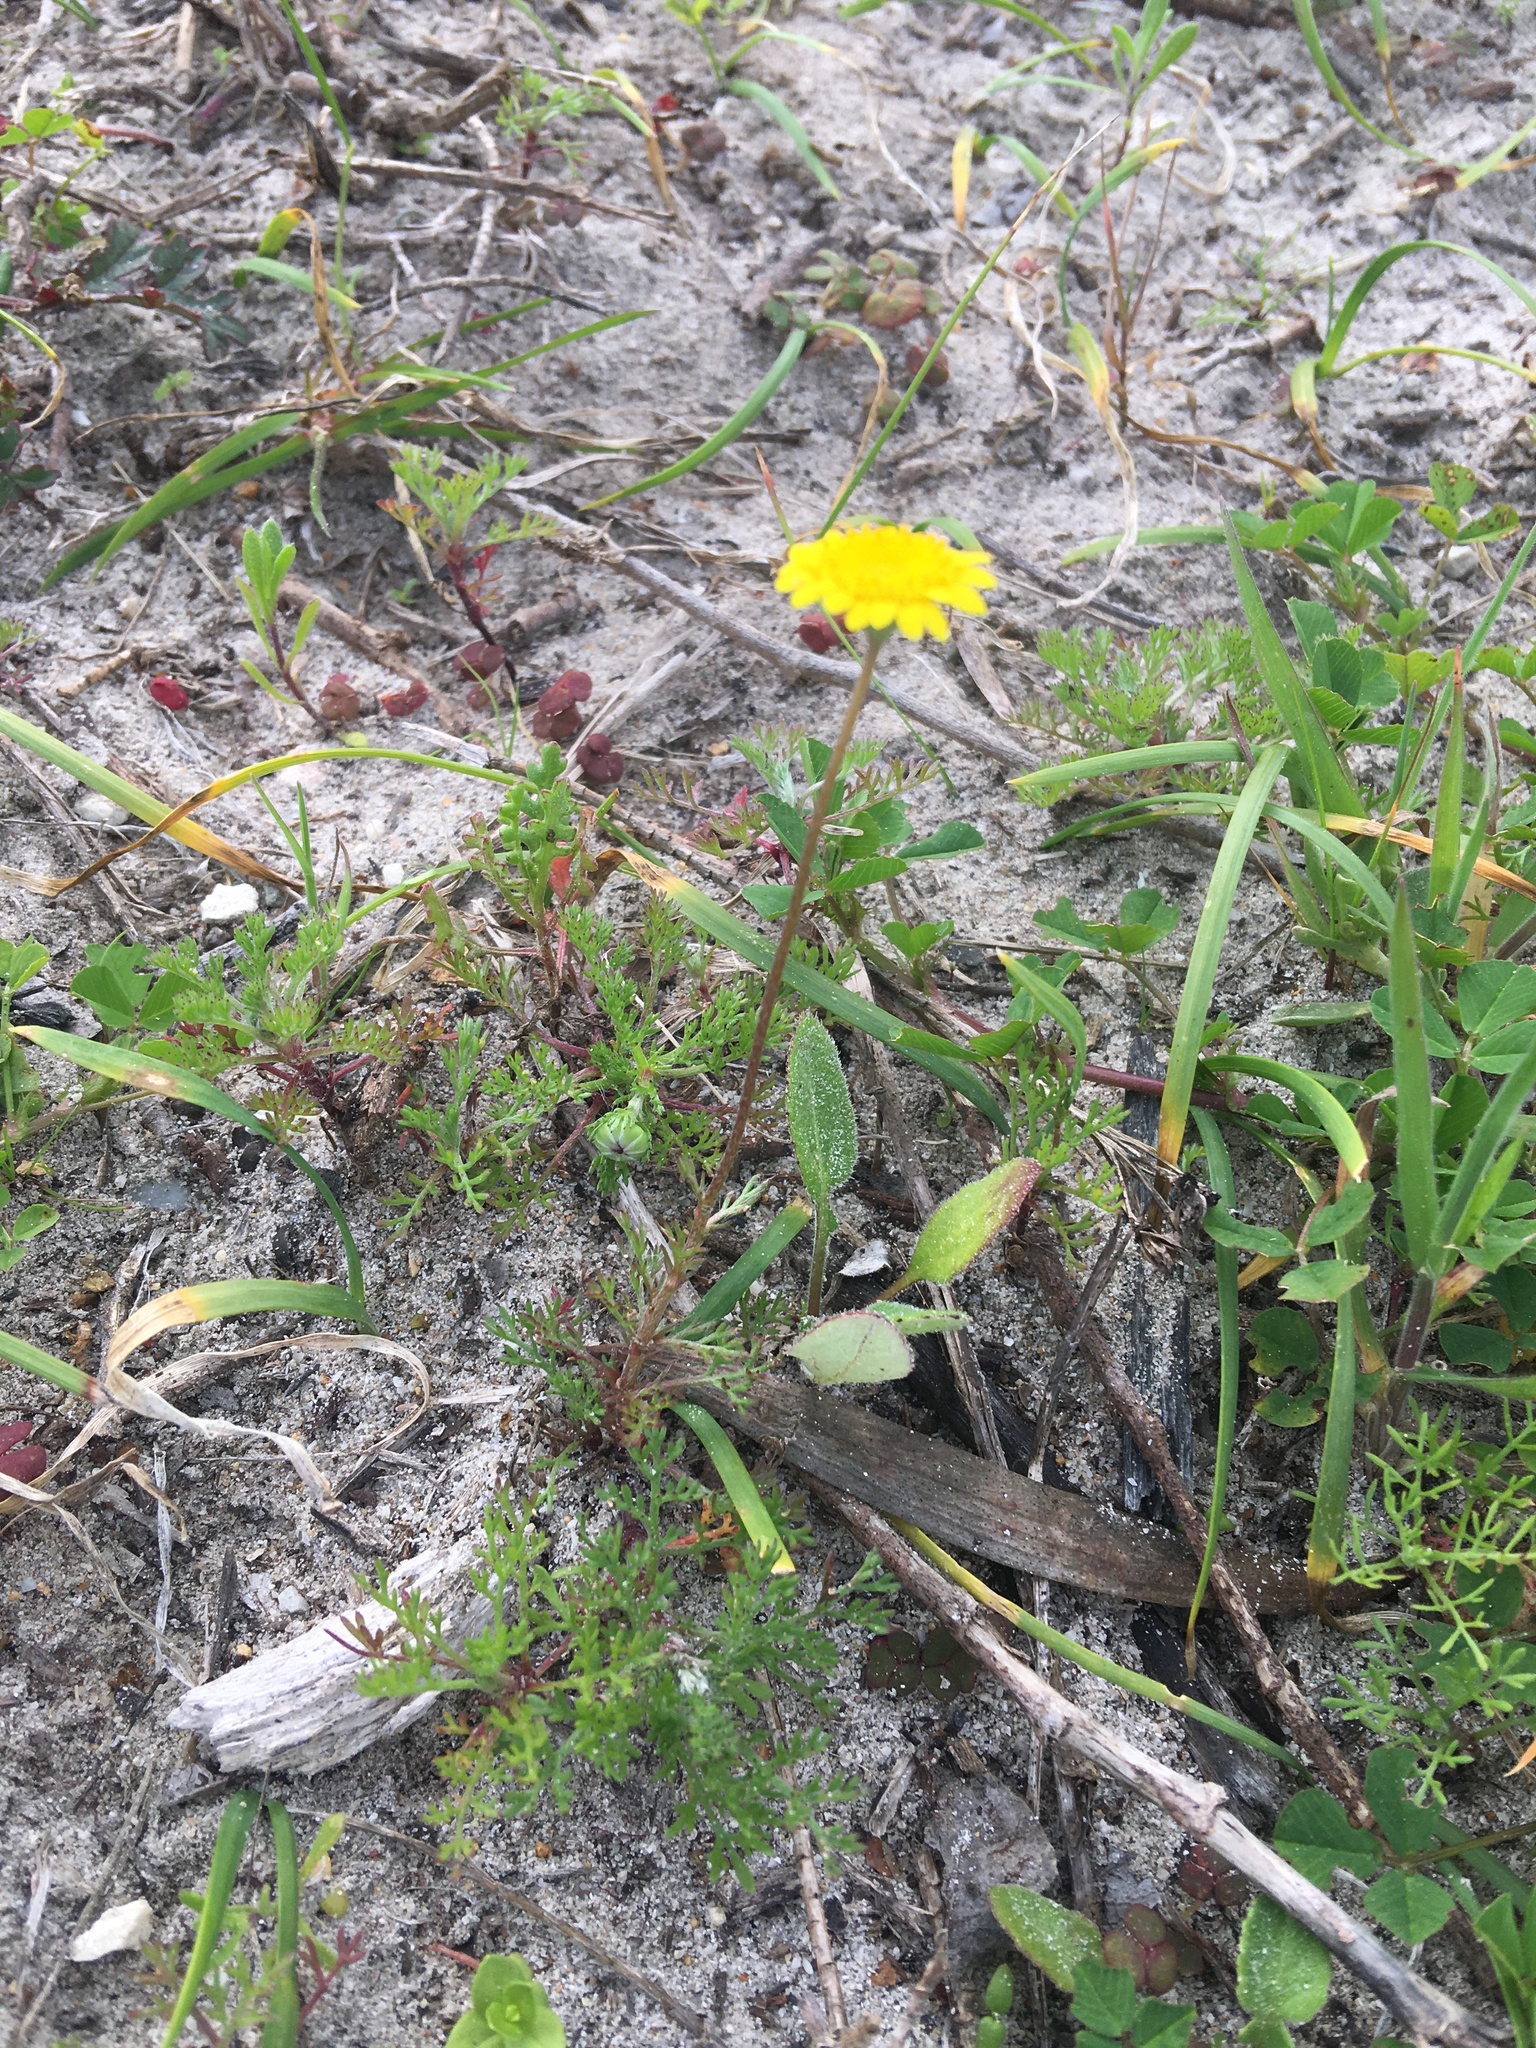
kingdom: Plantae
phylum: Tracheophyta
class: Magnoliopsida
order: Asterales
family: Asteraceae
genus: Cotula
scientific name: Cotula pruinosa
